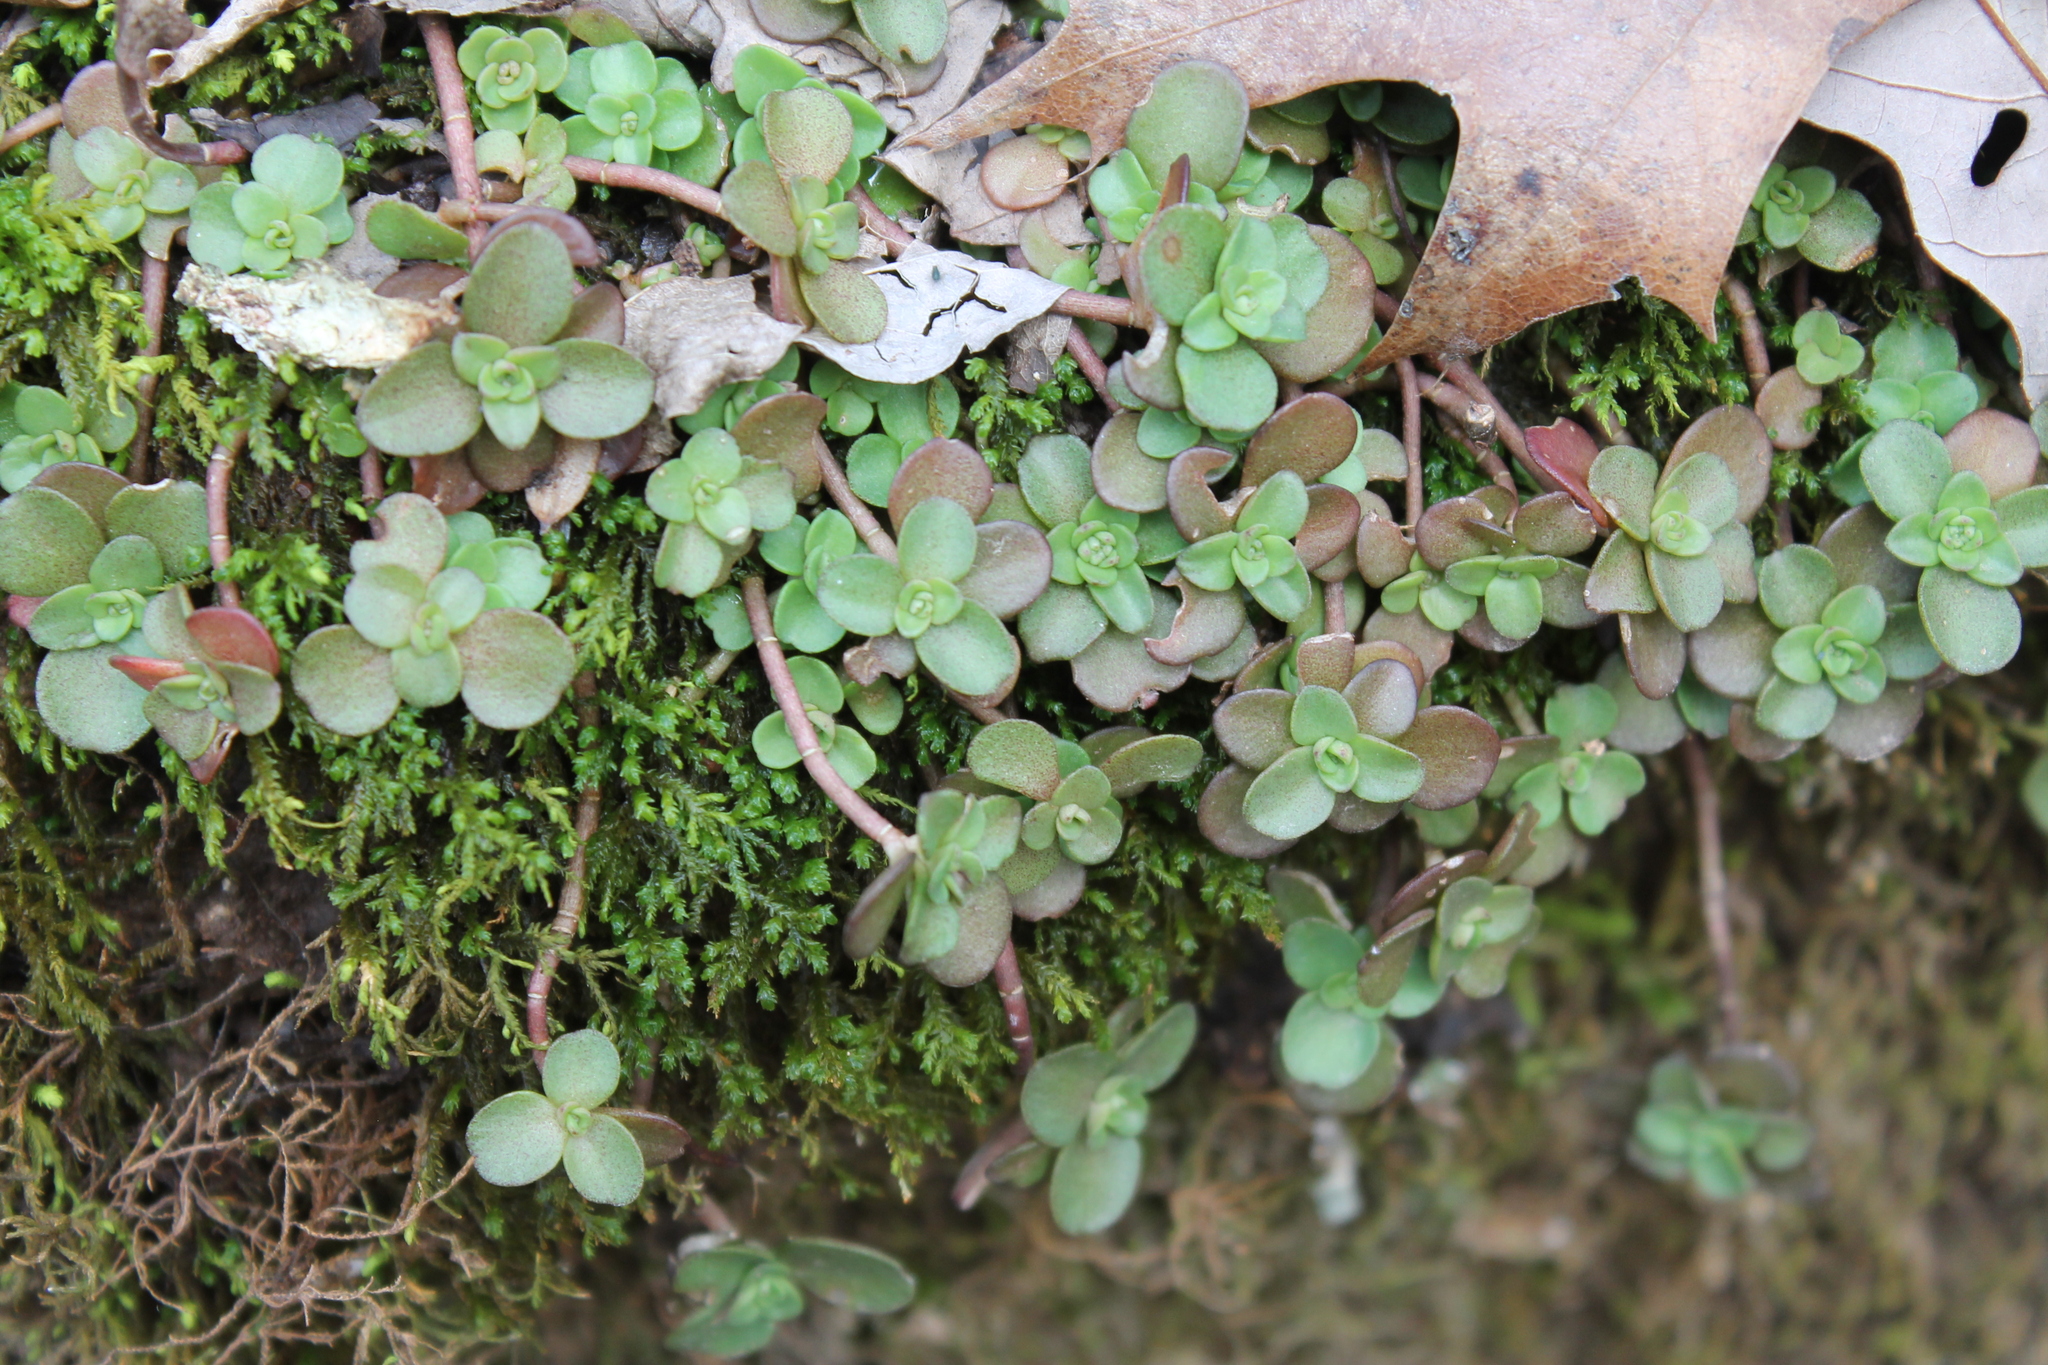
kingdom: Plantae
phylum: Tracheophyta
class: Magnoliopsida
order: Saxifragales
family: Crassulaceae
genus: Sedum
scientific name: Sedum ternatum
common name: Wild stonecrop
